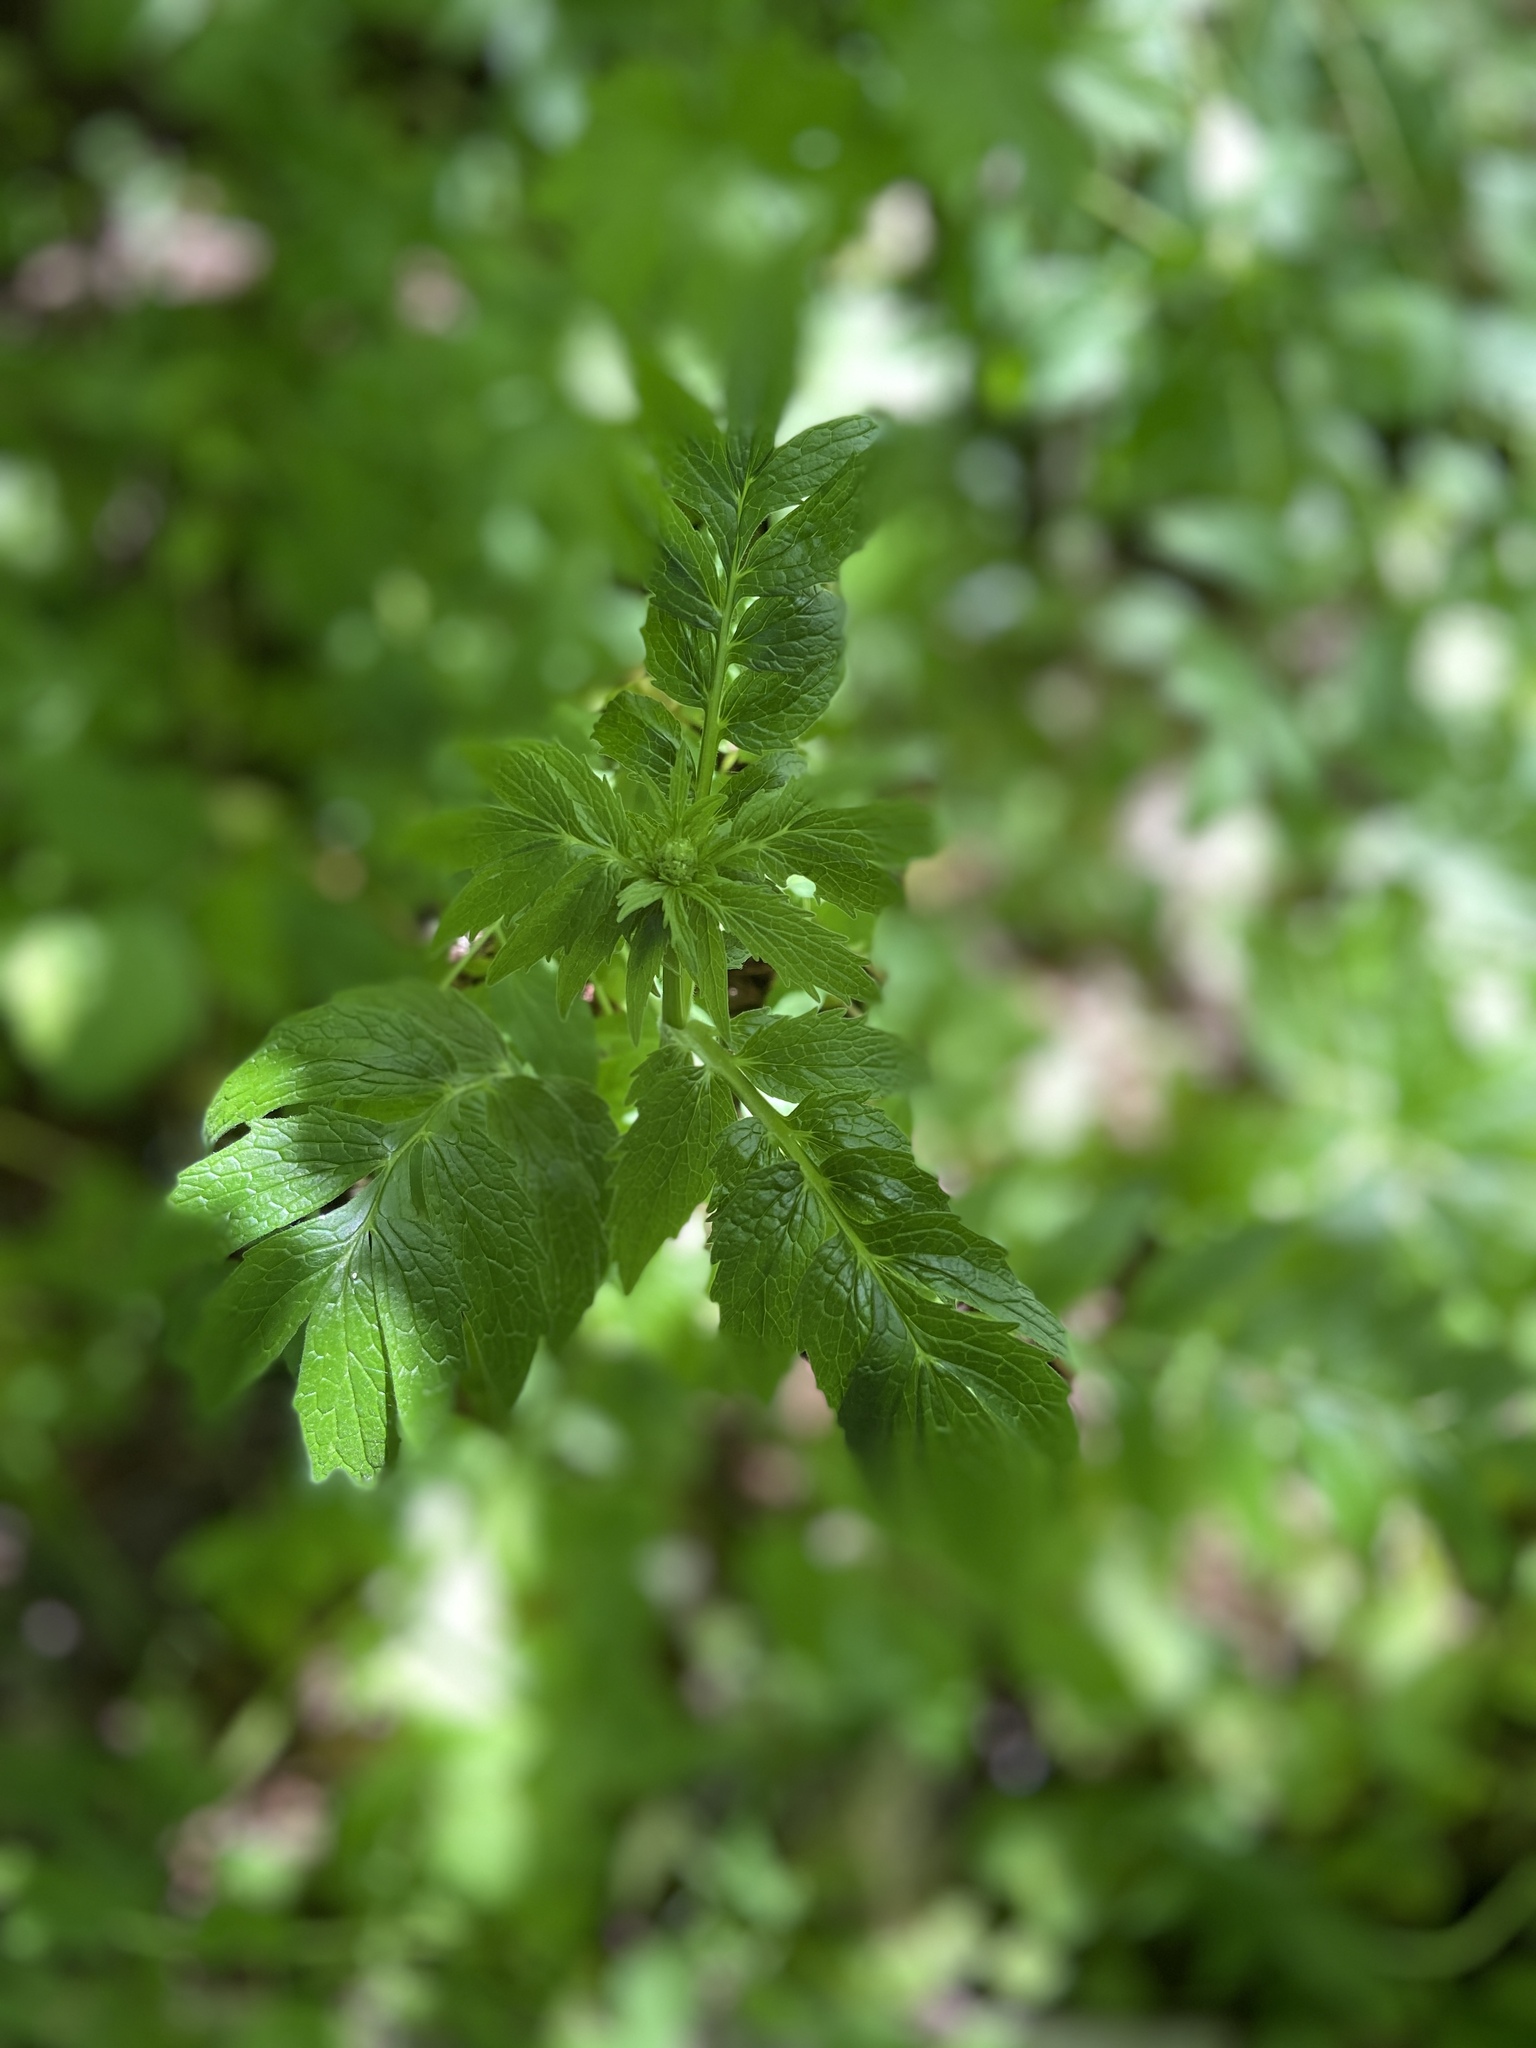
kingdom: Plantae
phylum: Tracheophyta
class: Magnoliopsida
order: Dipsacales
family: Caprifoliaceae
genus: Valeriana
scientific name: Valeriana officinalis
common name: Common valerian
